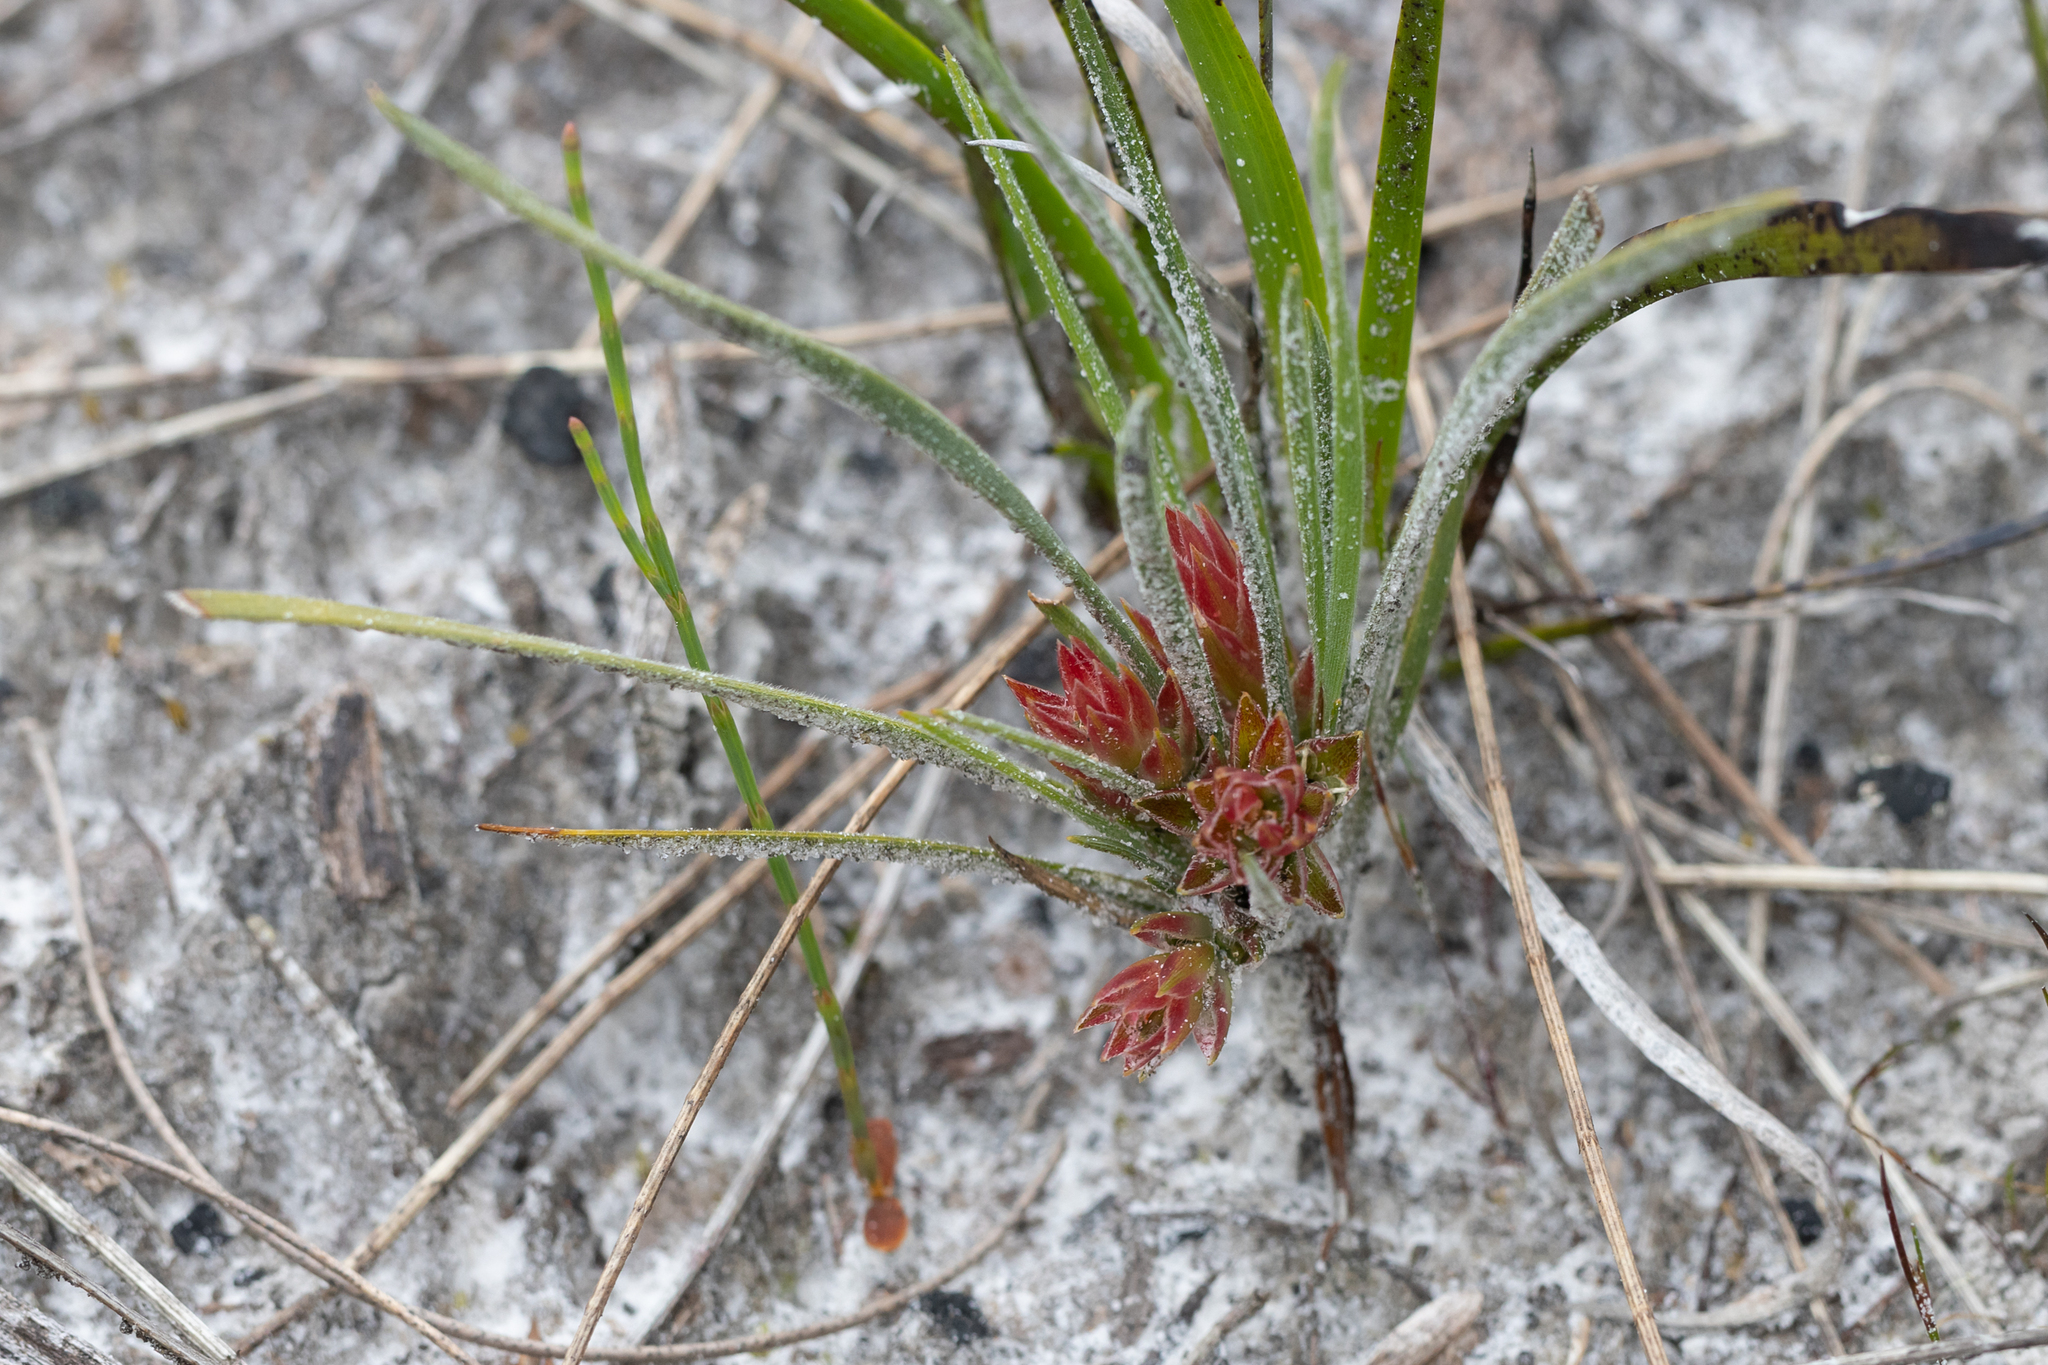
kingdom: Plantae
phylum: Tracheophyta
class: Liliopsida
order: Asparagales
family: Asphodelaceae
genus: Johnsonia
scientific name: Johnsonia acaulis
